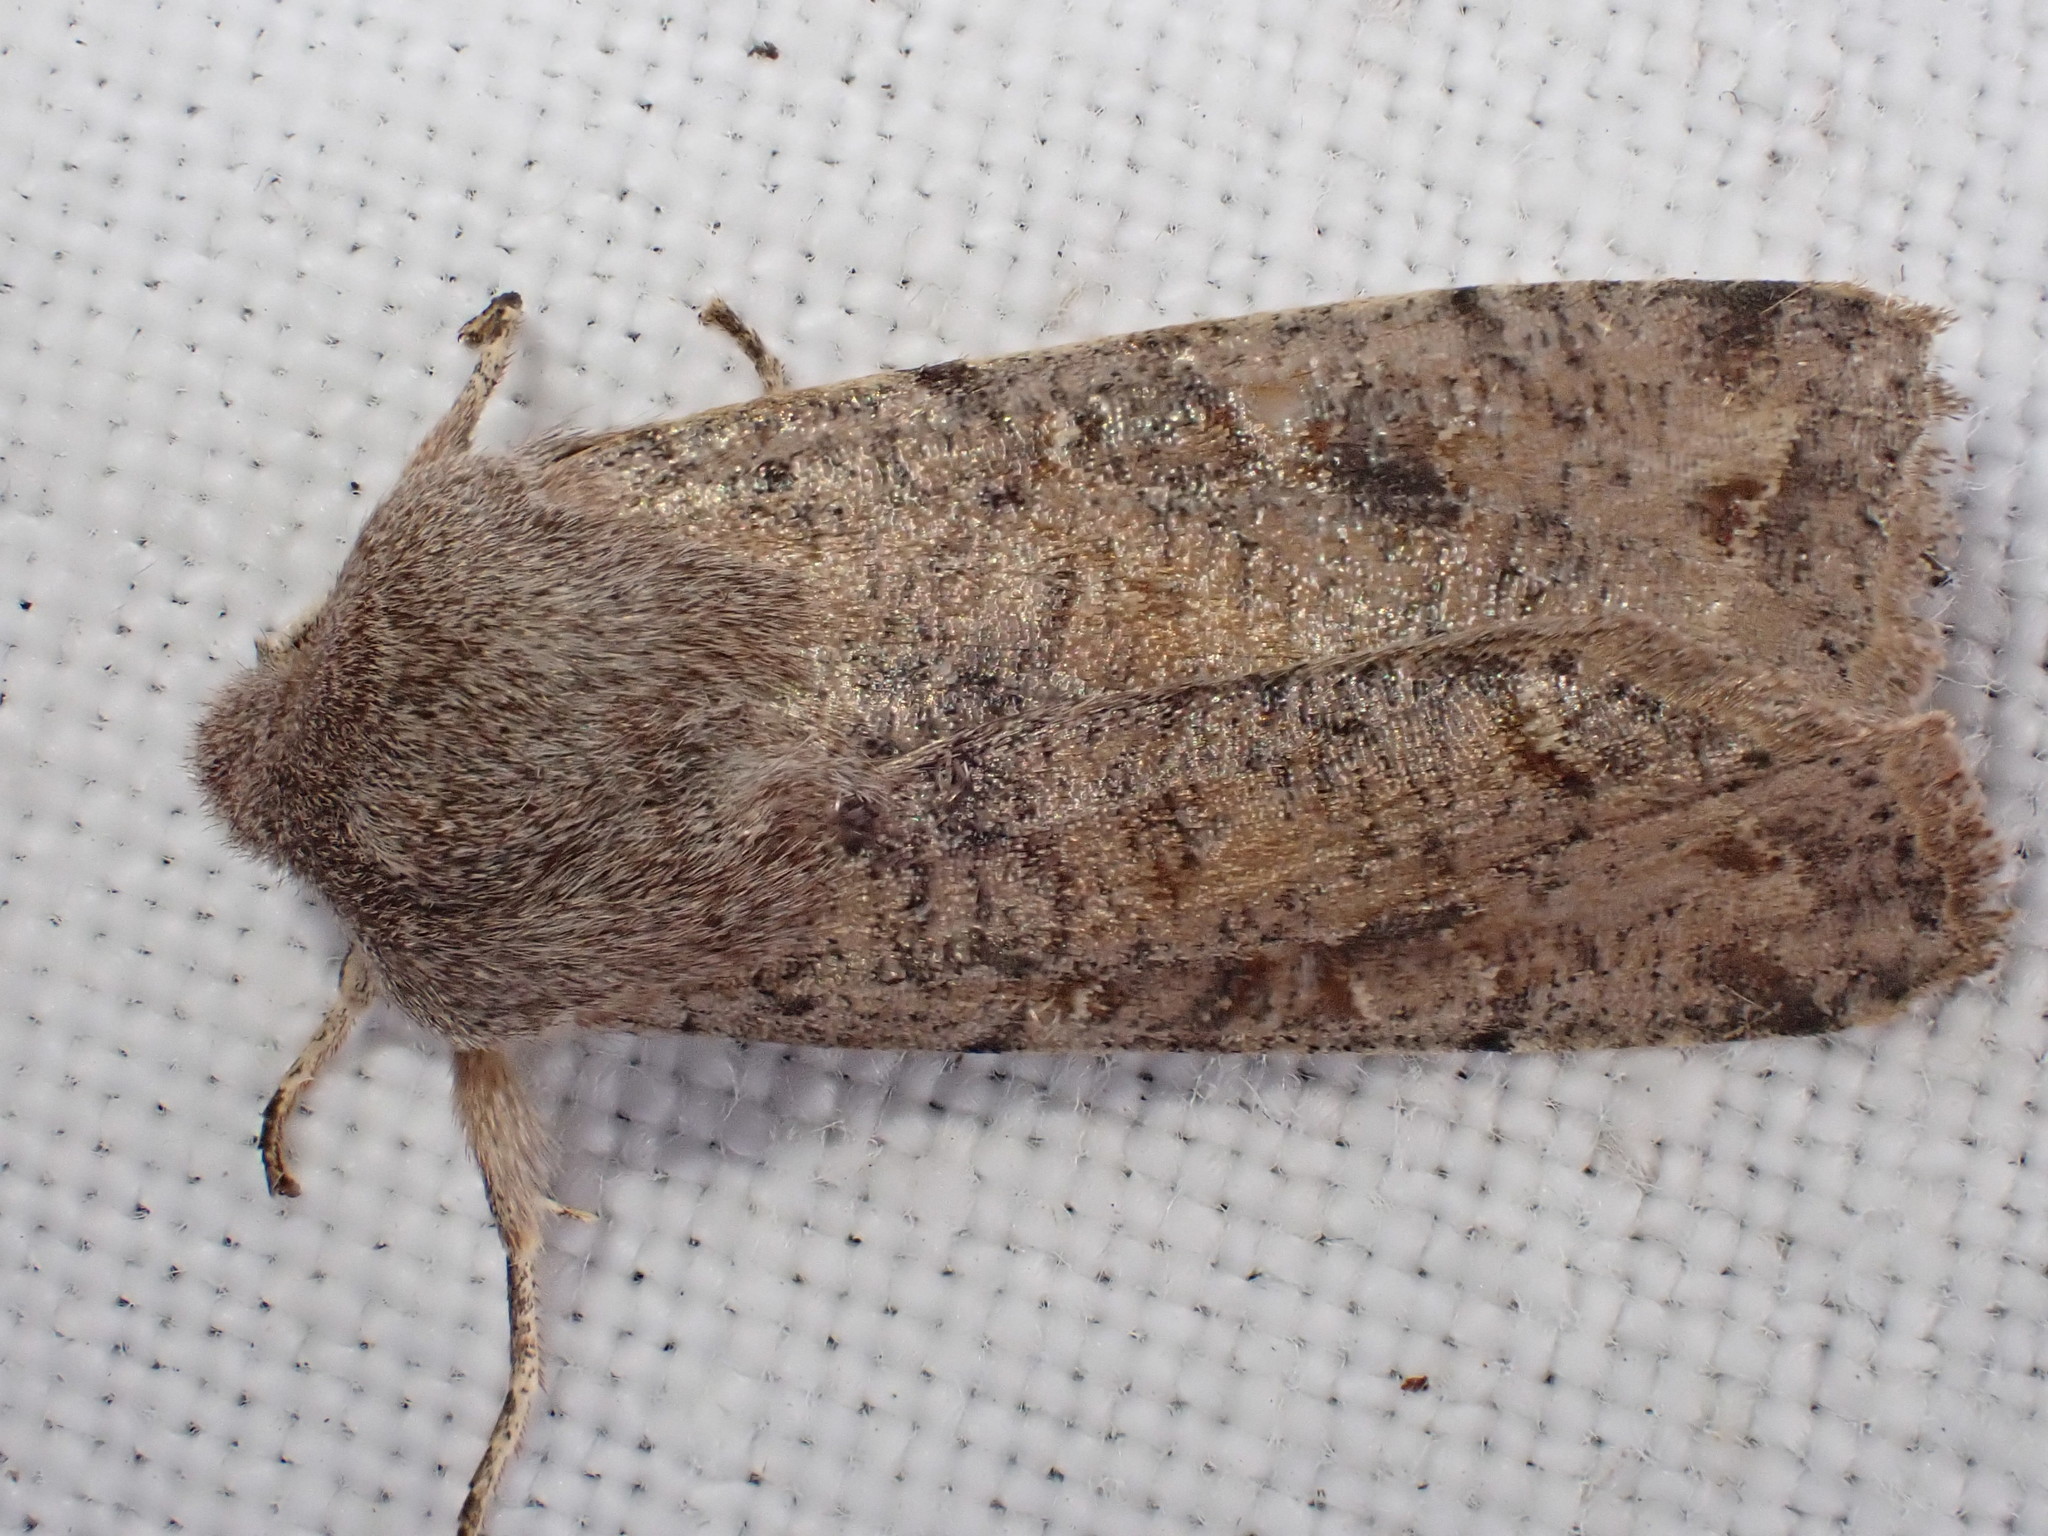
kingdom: Animalia
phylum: Arthropoda
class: Insecta
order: Lepidoptera
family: Noctuidae
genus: Orthosia
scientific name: Orthosia incerta
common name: Clouded drab
